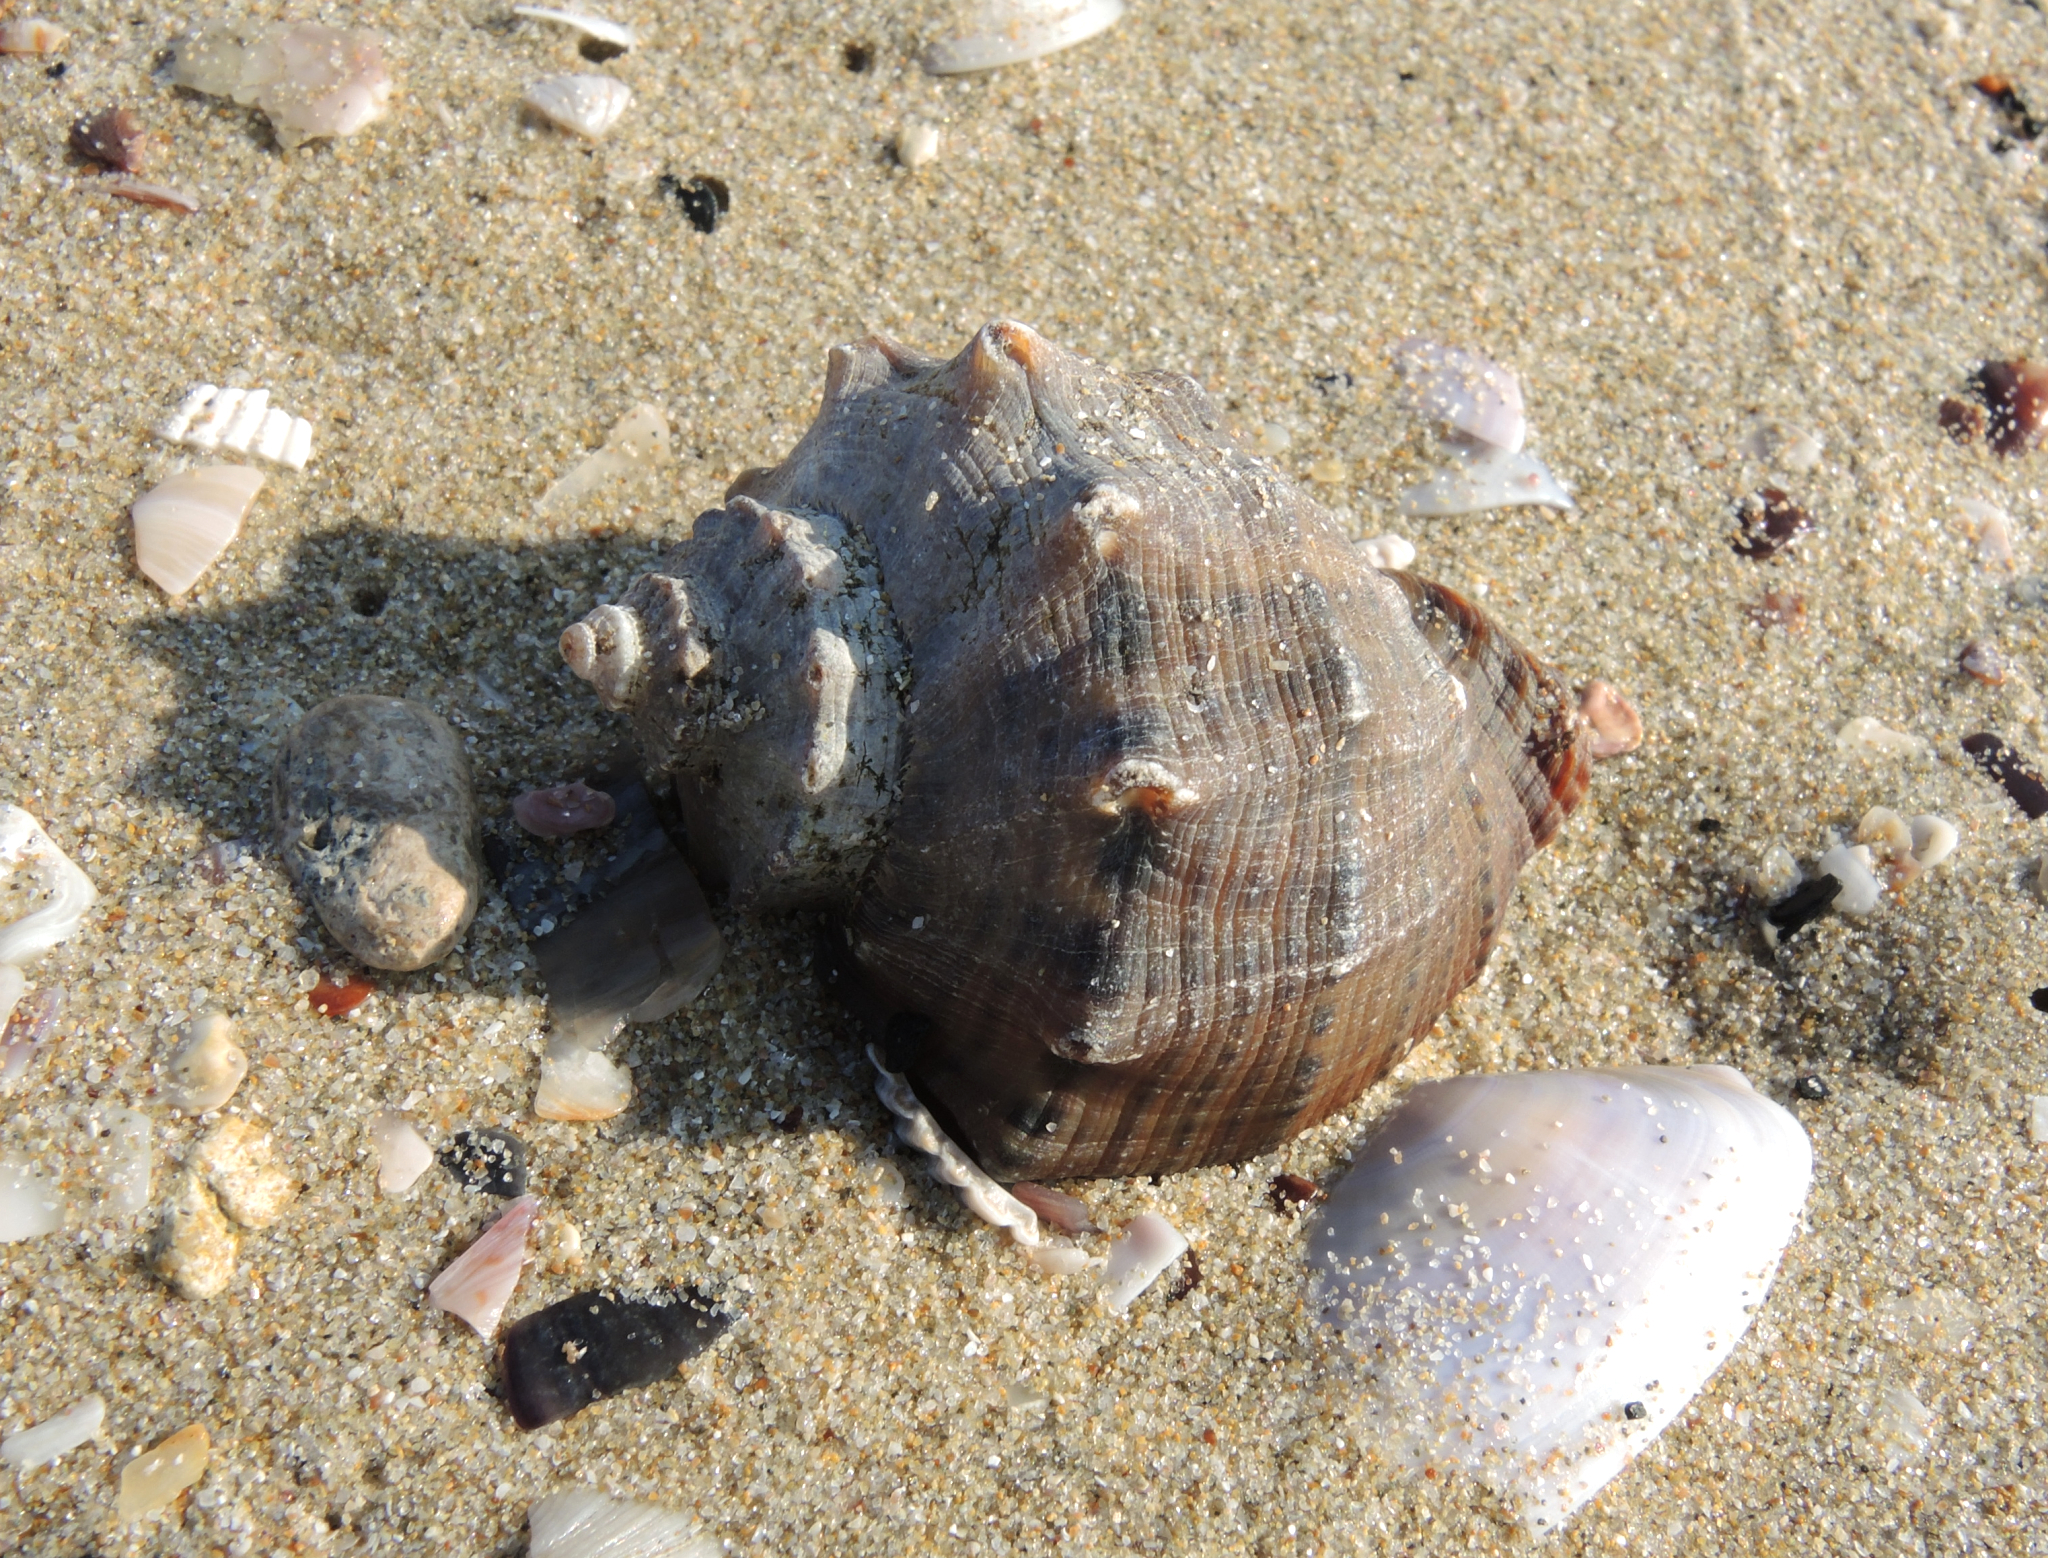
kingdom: Animalia
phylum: Mollusca
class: Gastropoda
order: Neogastropoda
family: Muricidae
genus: Rapana
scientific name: Rapana venosa
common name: Veined rapa whelk
